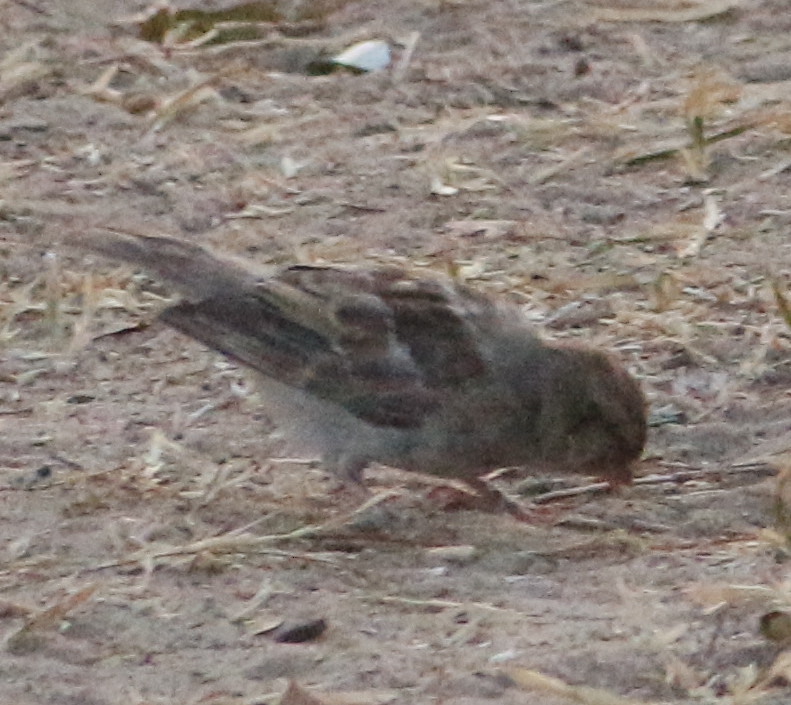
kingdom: Animalia
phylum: Chordata
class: Aves
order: Passeriformes
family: Passeridae
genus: Passer
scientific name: Passer domesticus
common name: House sparrow
